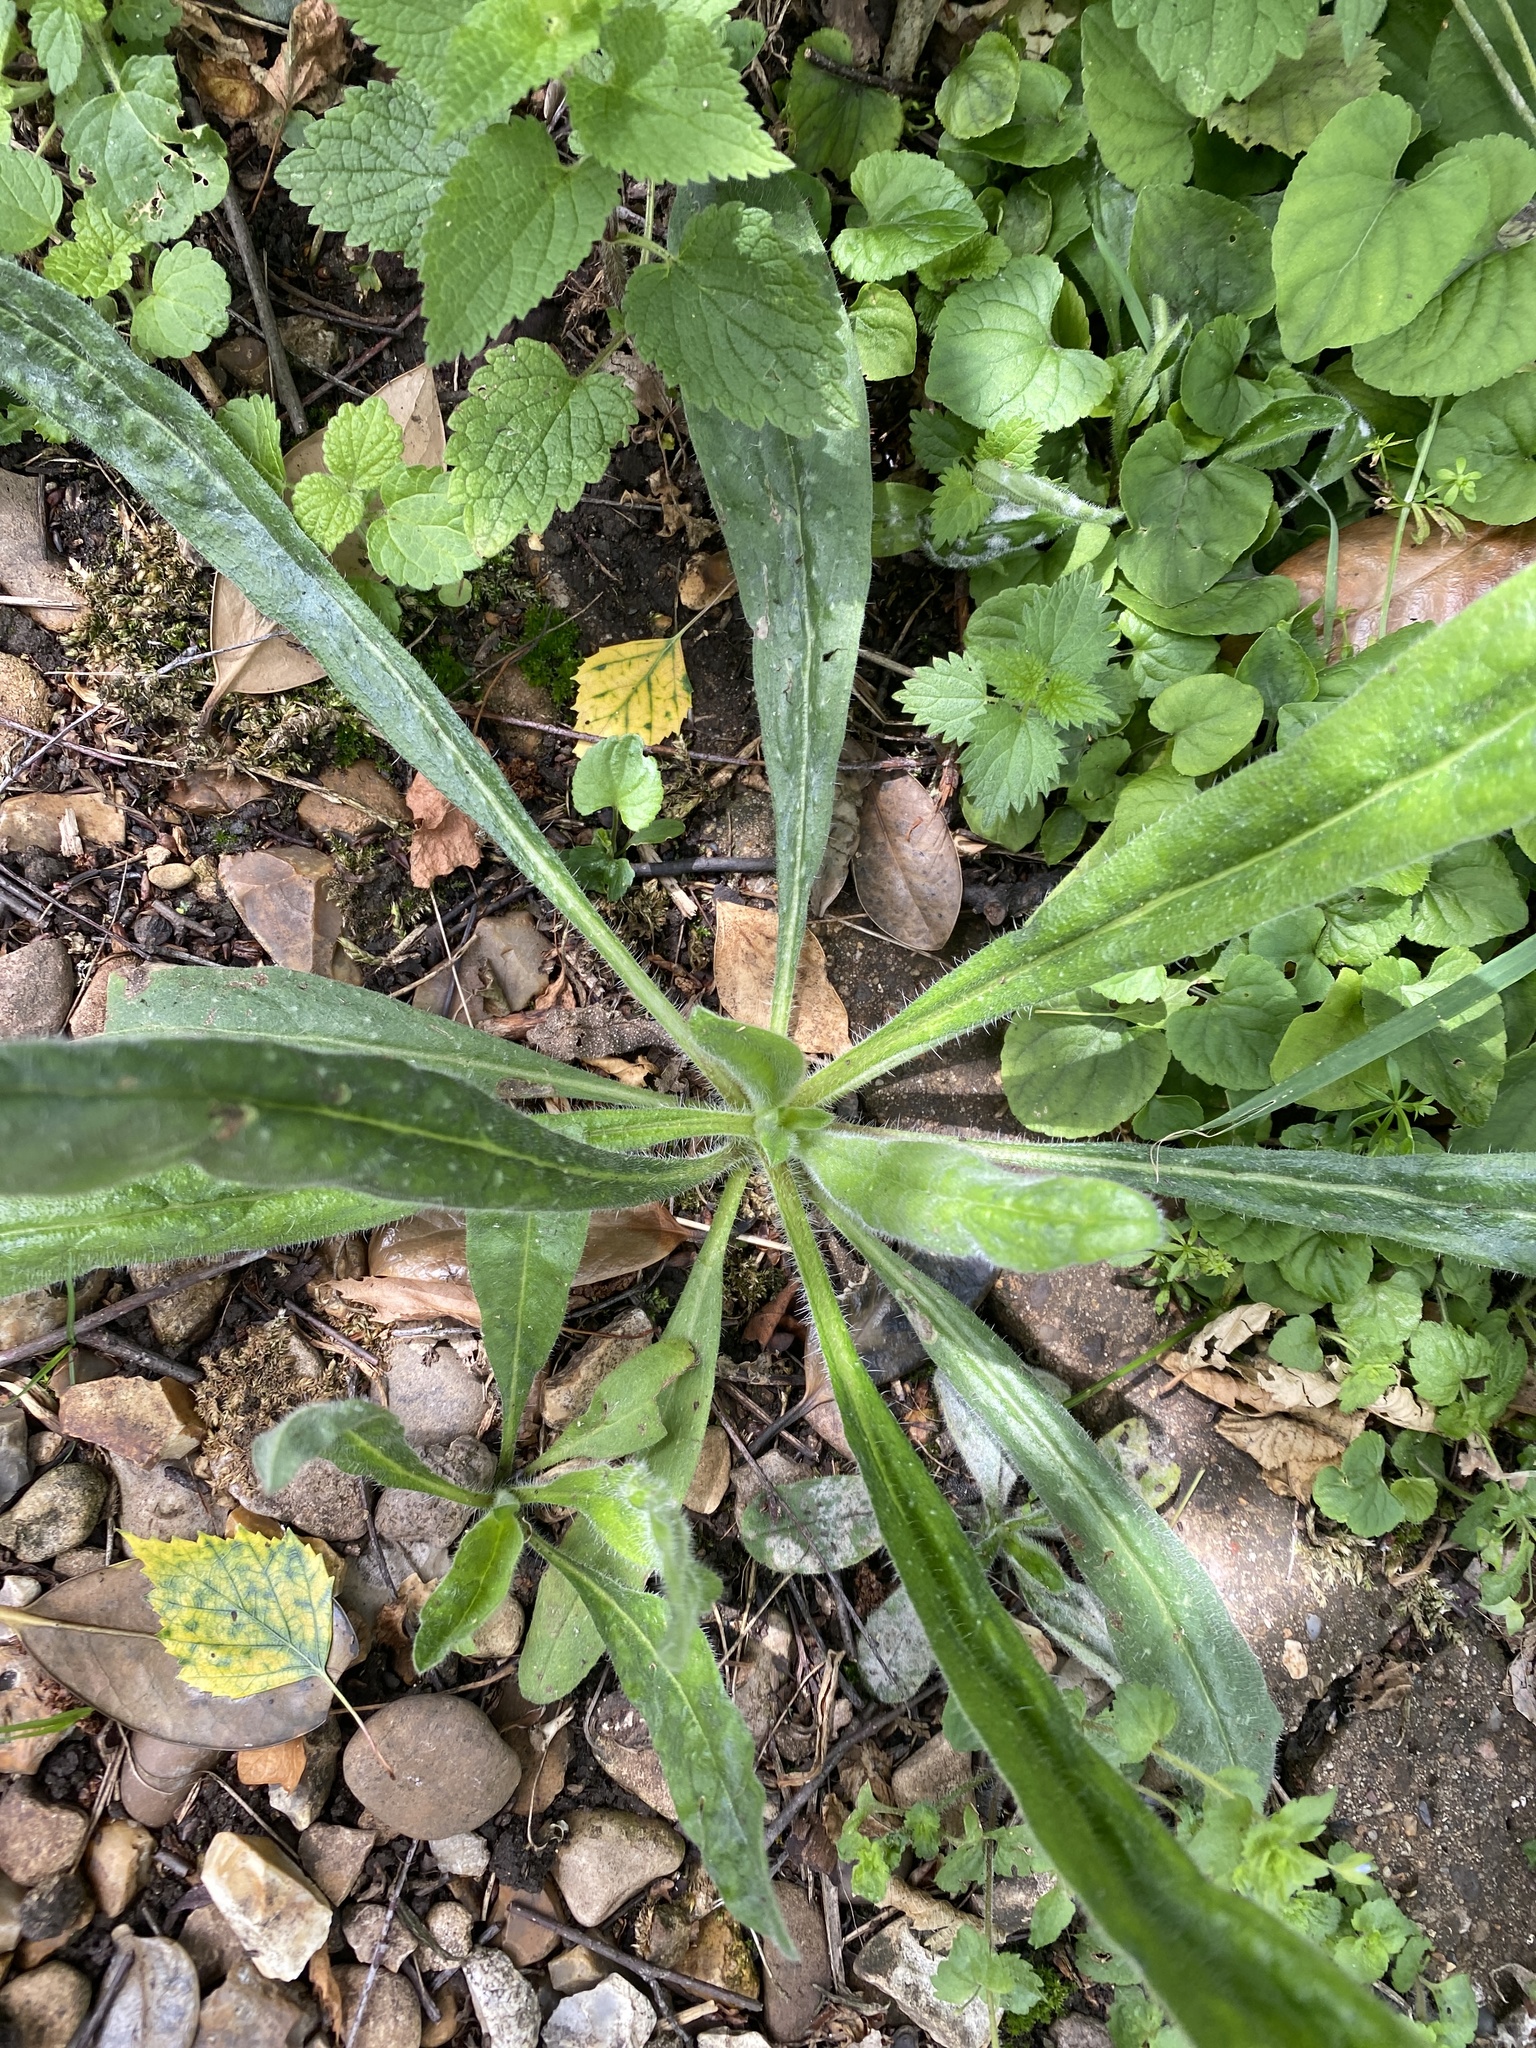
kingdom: Plantae
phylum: Tracheophyta
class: Magnoliopsida
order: Asterales
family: Asteraceae
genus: Helminthotheca
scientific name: Helminthotheca echioides
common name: Ox-tongue
